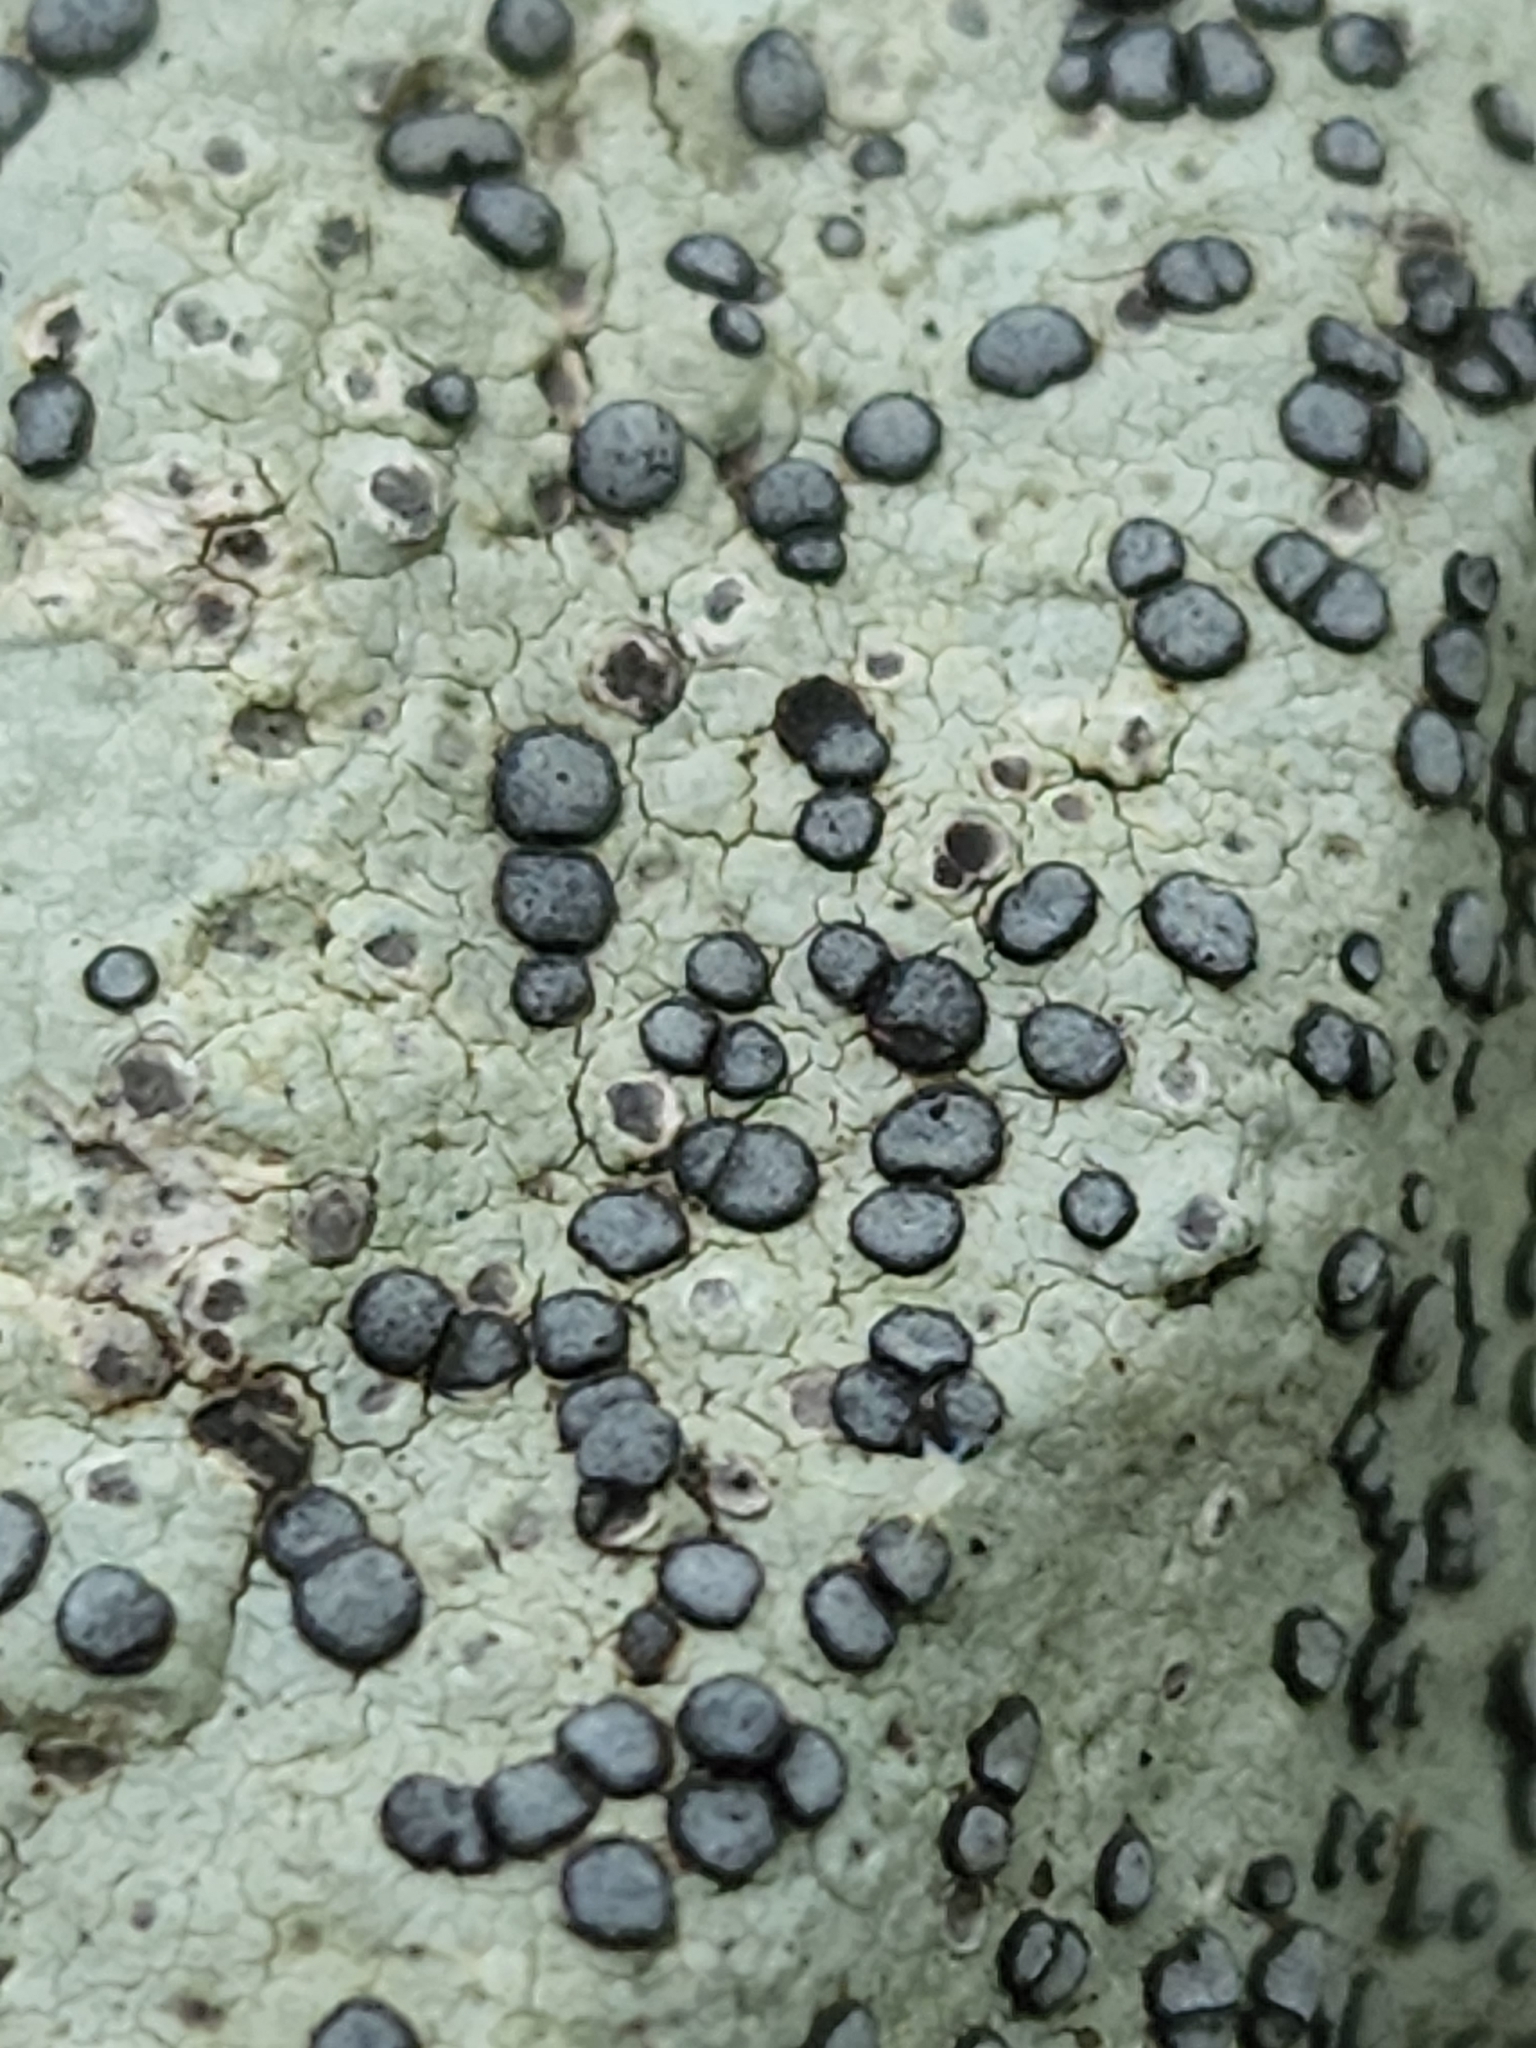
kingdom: Fungi
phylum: Ascomycota
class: Lecanoromycetes
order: Lecideales
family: Lecideaceae
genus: Porpidia
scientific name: Porpidia albocaerulescens
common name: Smokey-eyed boulder lichen
